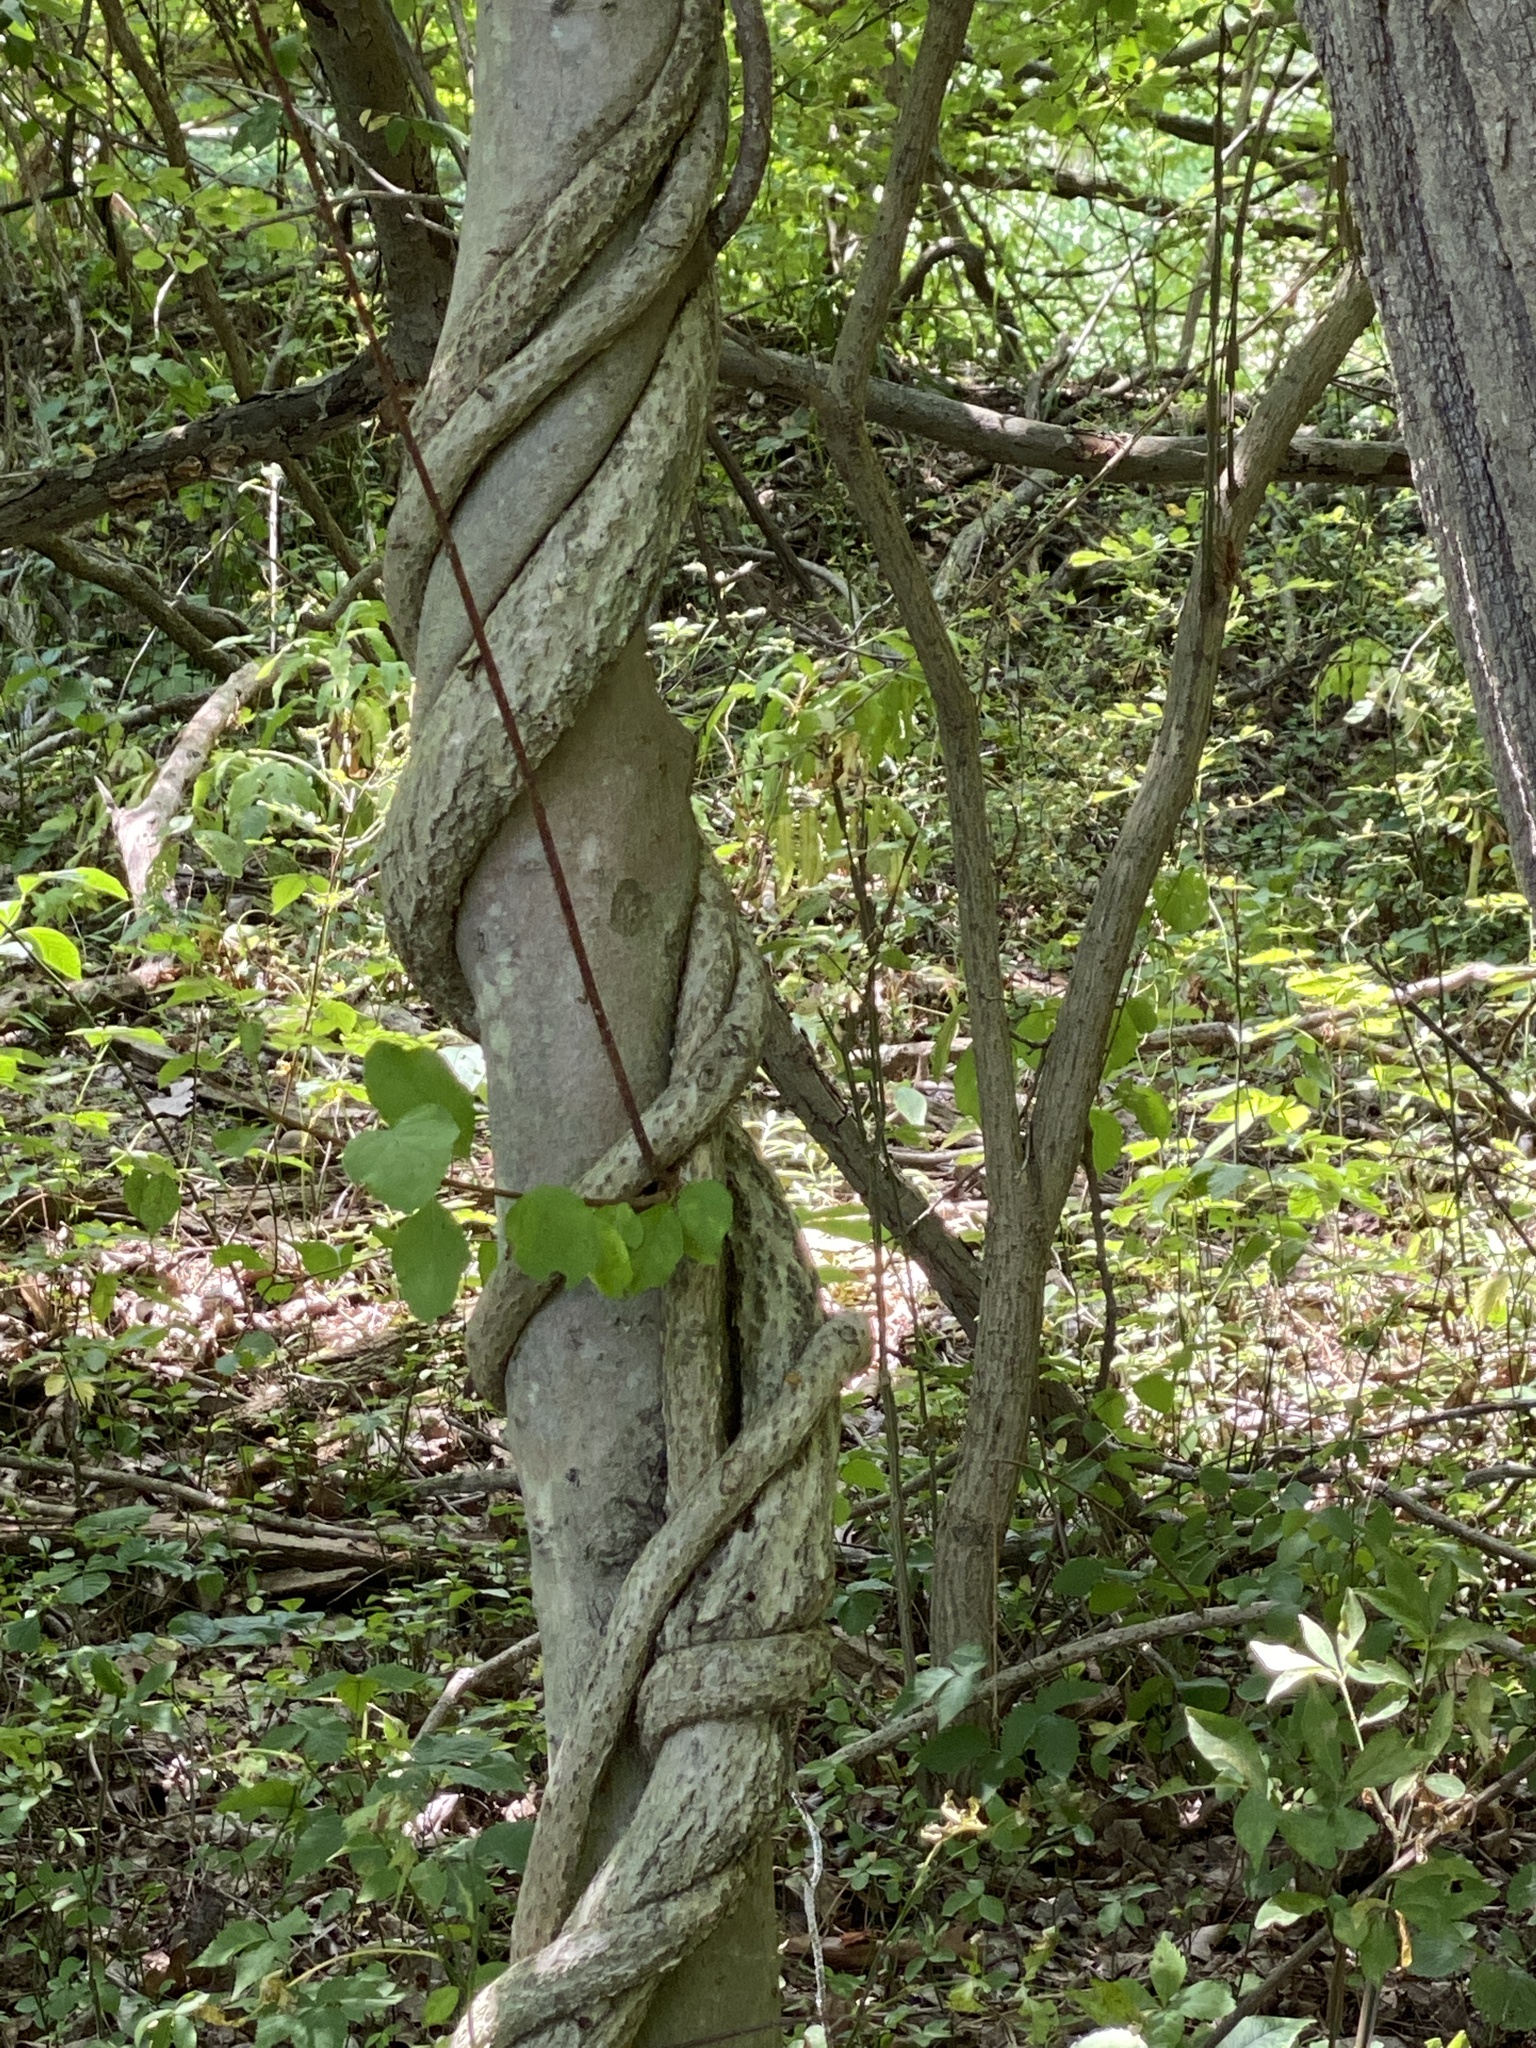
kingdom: Plantae
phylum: Tracheophyta
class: Magnoliopsida
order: Celastrales
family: Celastraceae
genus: Celastrus
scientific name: Celastrus orbiculatus
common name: Oriental bittersweet
